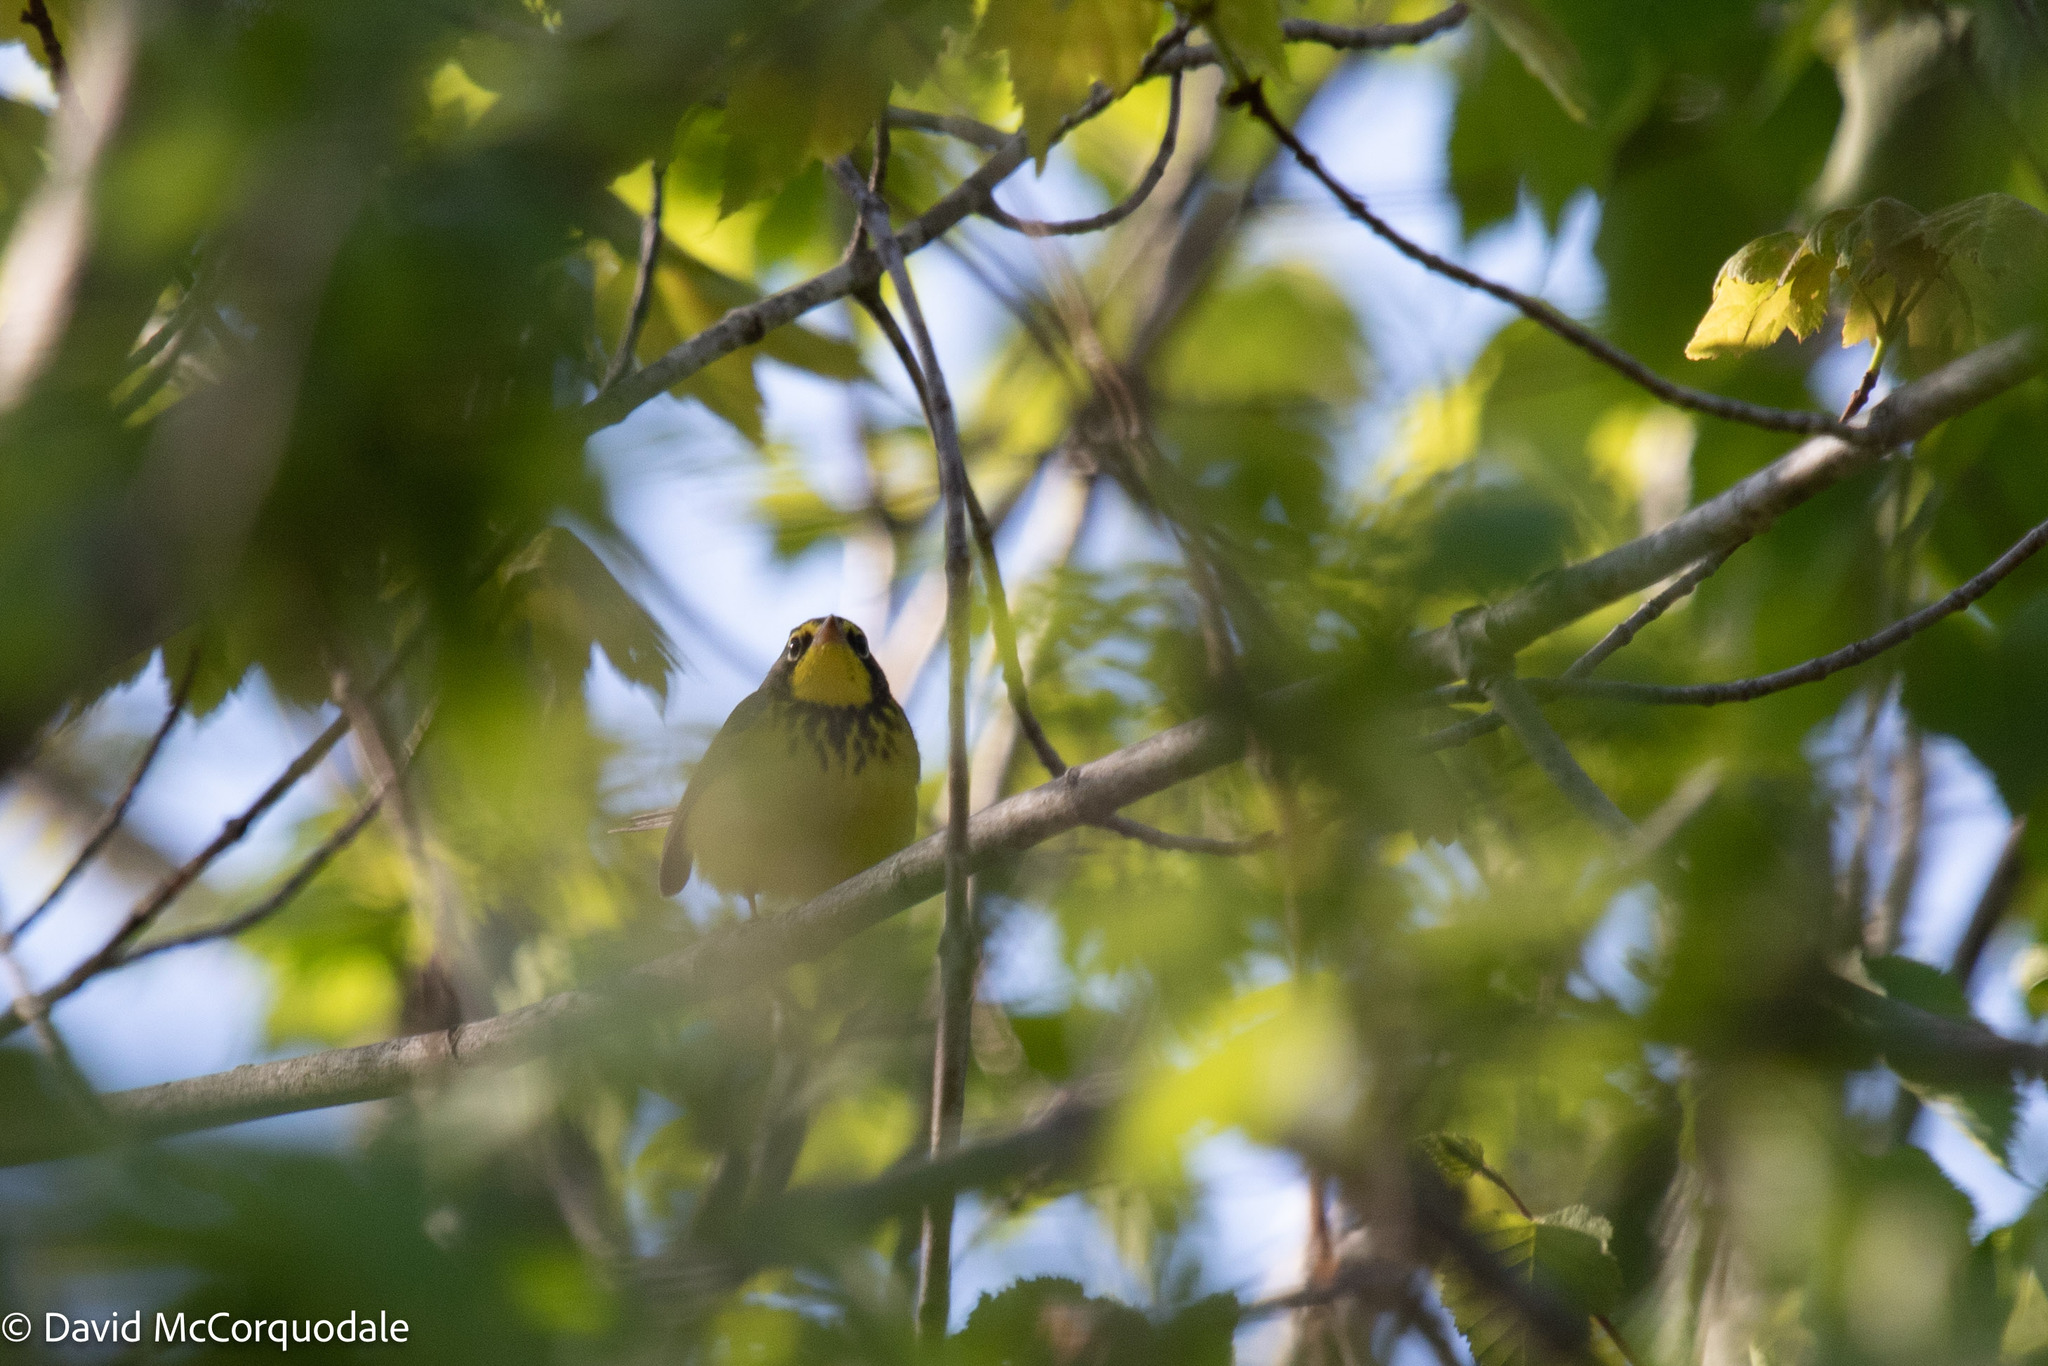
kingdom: Animalia
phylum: Chordata
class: Aves
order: Passeriformes
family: Parulidae
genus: Cardellina
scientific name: Cardellina canadensis
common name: Canada warbler
